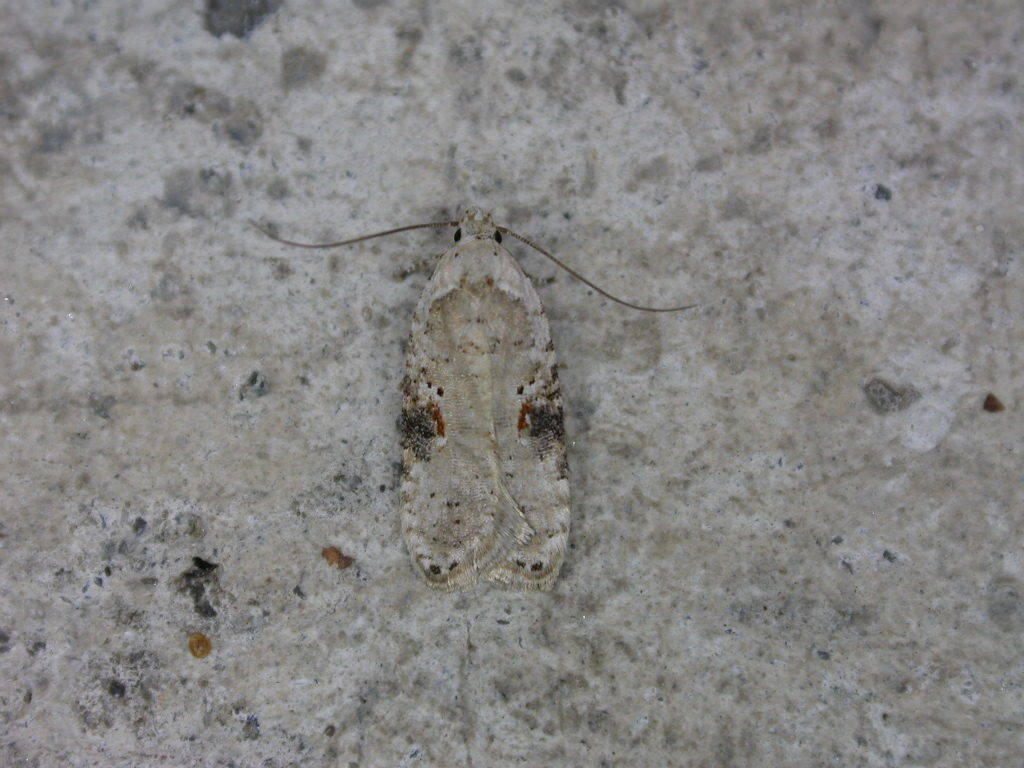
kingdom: Animalia
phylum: Arthropoda
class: Insecta
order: Lepidoptera
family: Depressariidae
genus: Agonopterix
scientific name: Agonopterix alstroemeriana
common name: Moth
